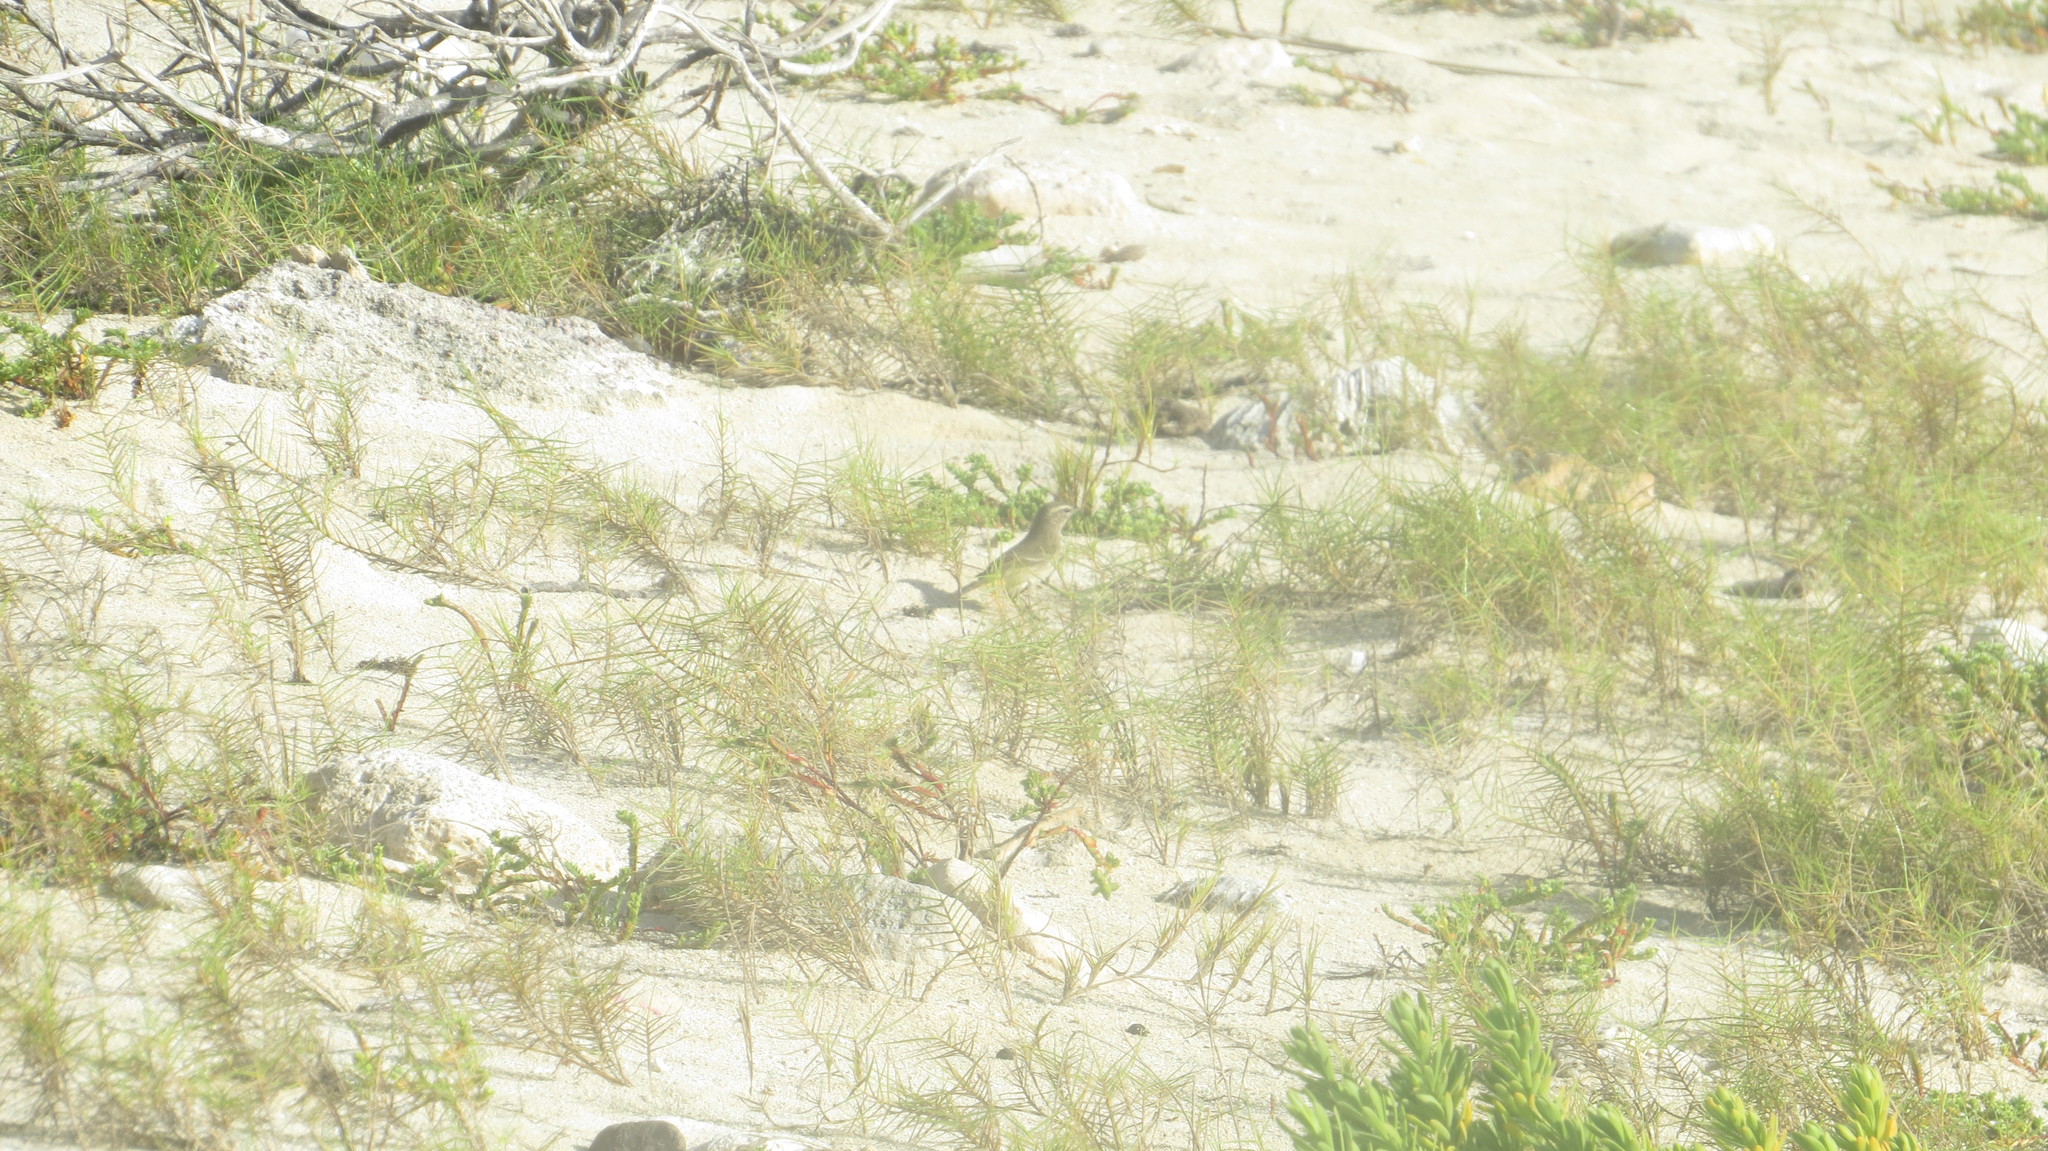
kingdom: Animalia
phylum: Chordata
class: Aves
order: Passeriformes
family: Parulidae
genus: Setophaga
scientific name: Setophaga palmarum
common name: Palm warbler
